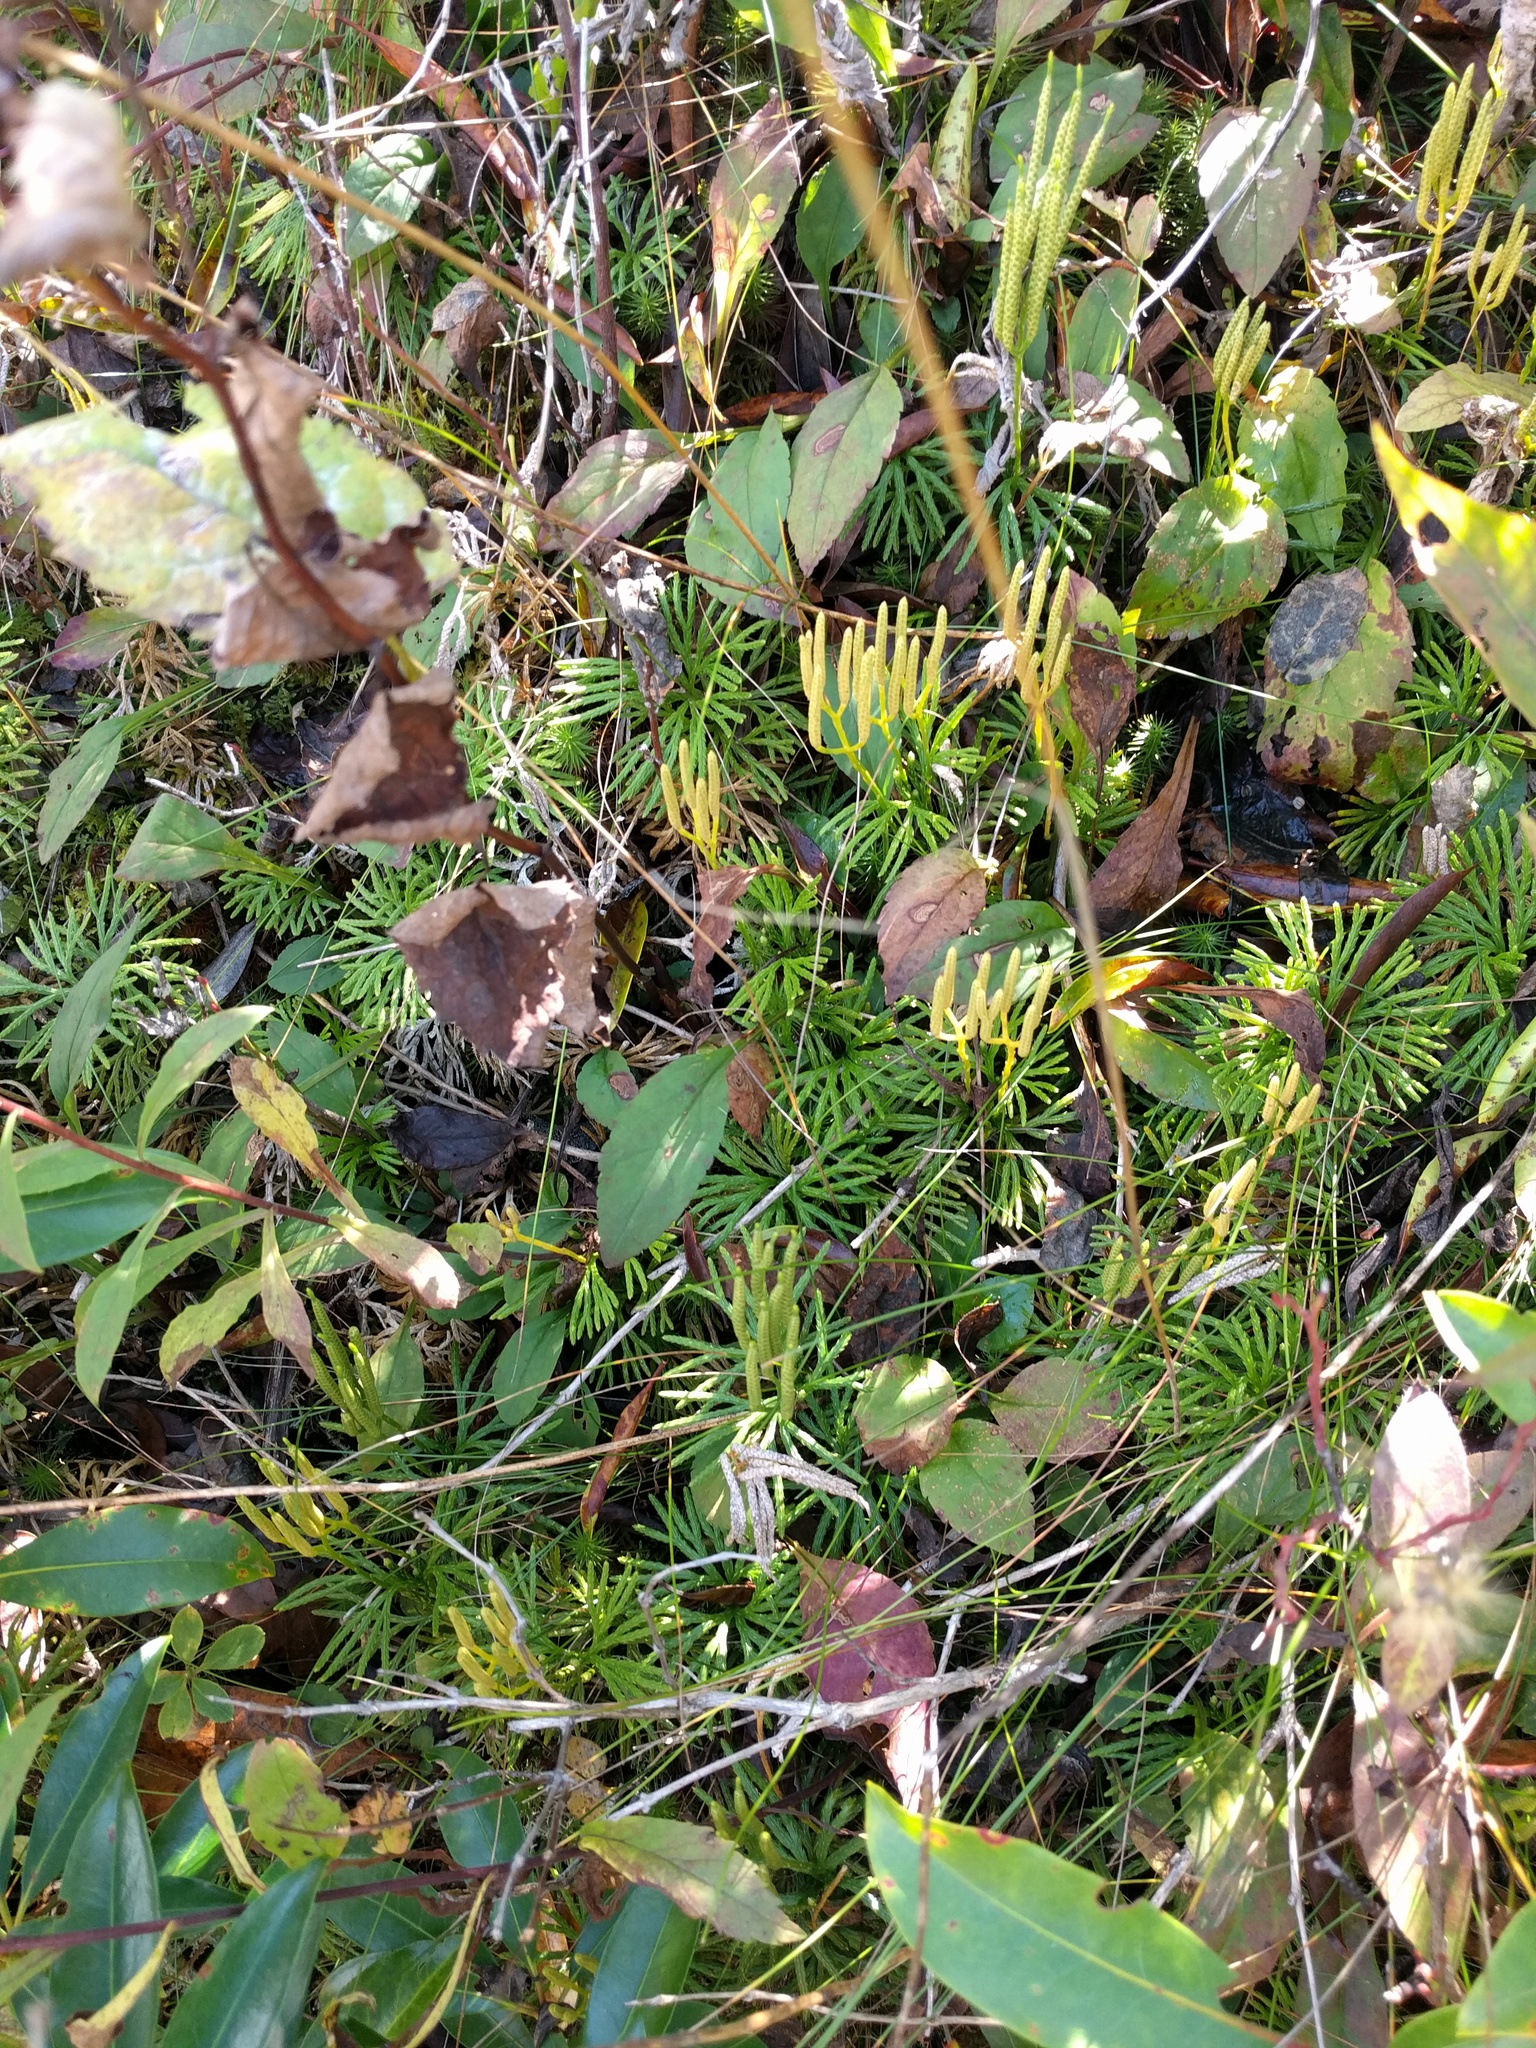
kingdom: Plantae
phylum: Tracheophyta
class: Lycopodiopsida
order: Lycopodiales
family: Lycopodiaceae
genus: Diphasiastrum
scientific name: Diphasiastrum digitatum
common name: Southern running-pine
